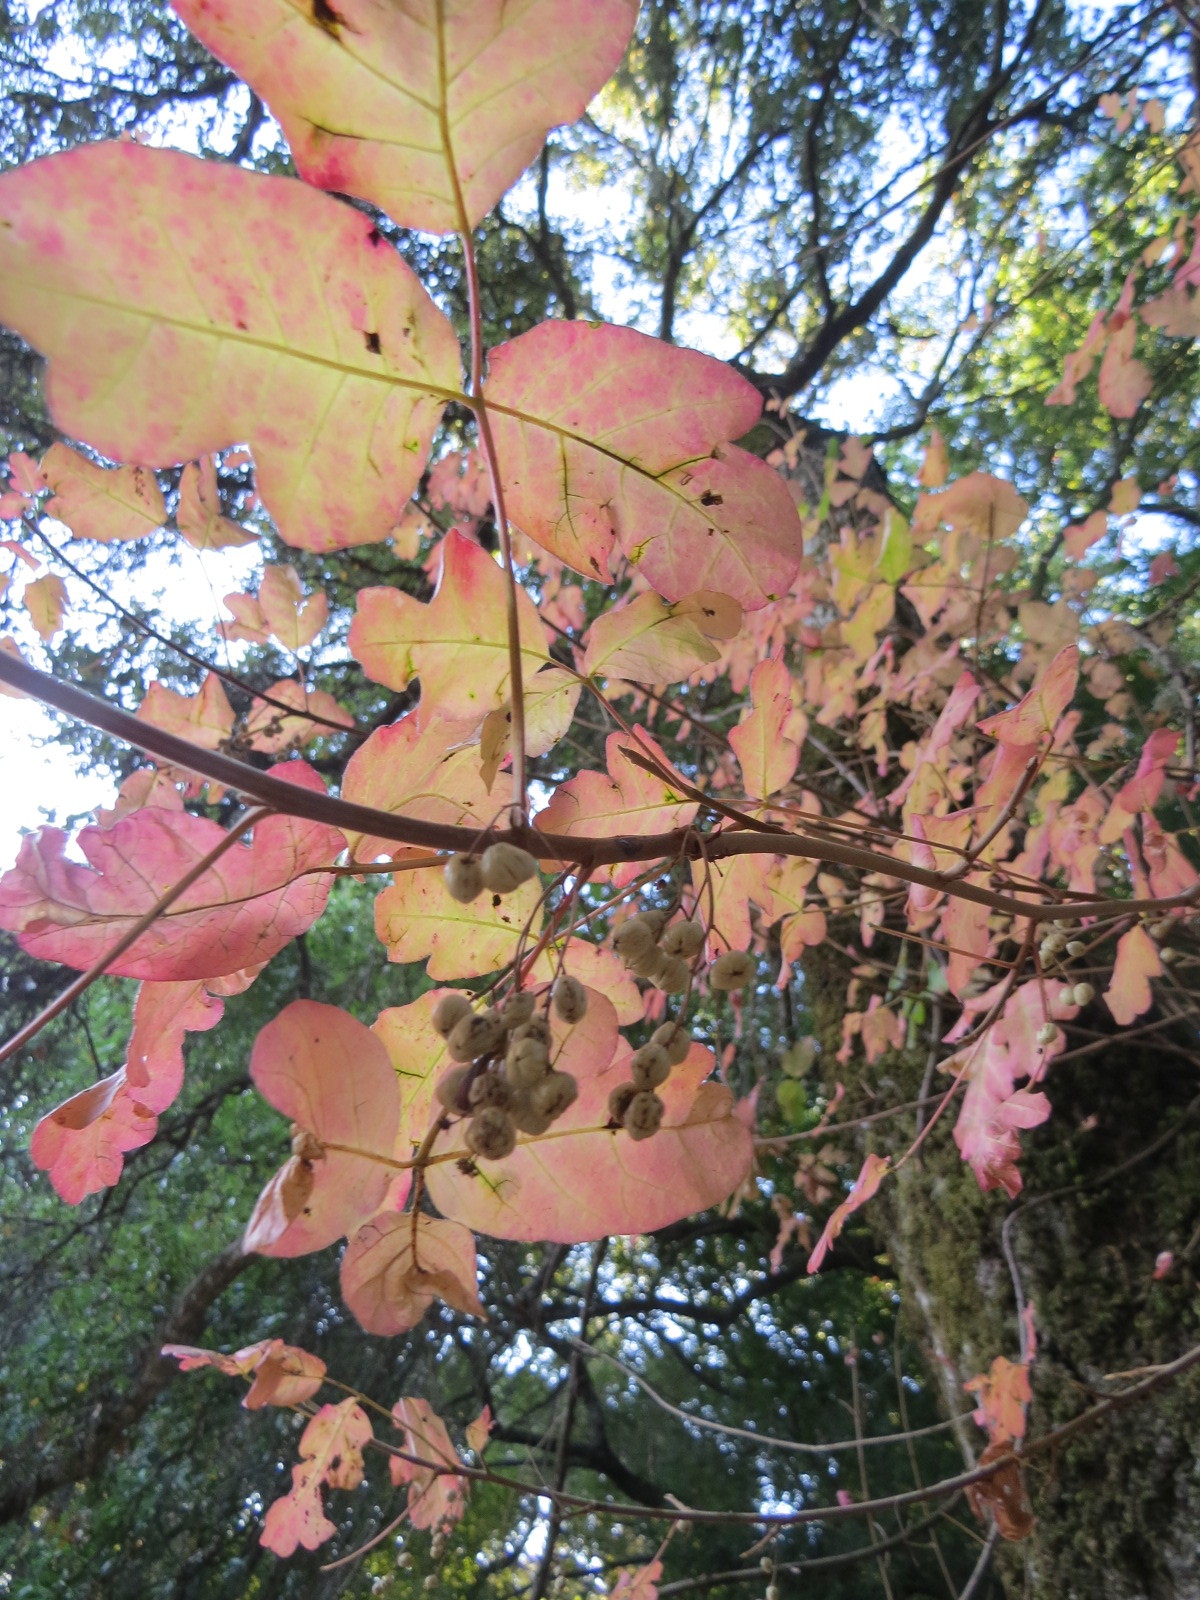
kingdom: Plantae
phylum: Tracheophyta
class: Magnoliopsida
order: Sapindales
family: Anacardiaceae
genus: Toxicodendron
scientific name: Toxicodendron diversilobum
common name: Pacific poison-oak
